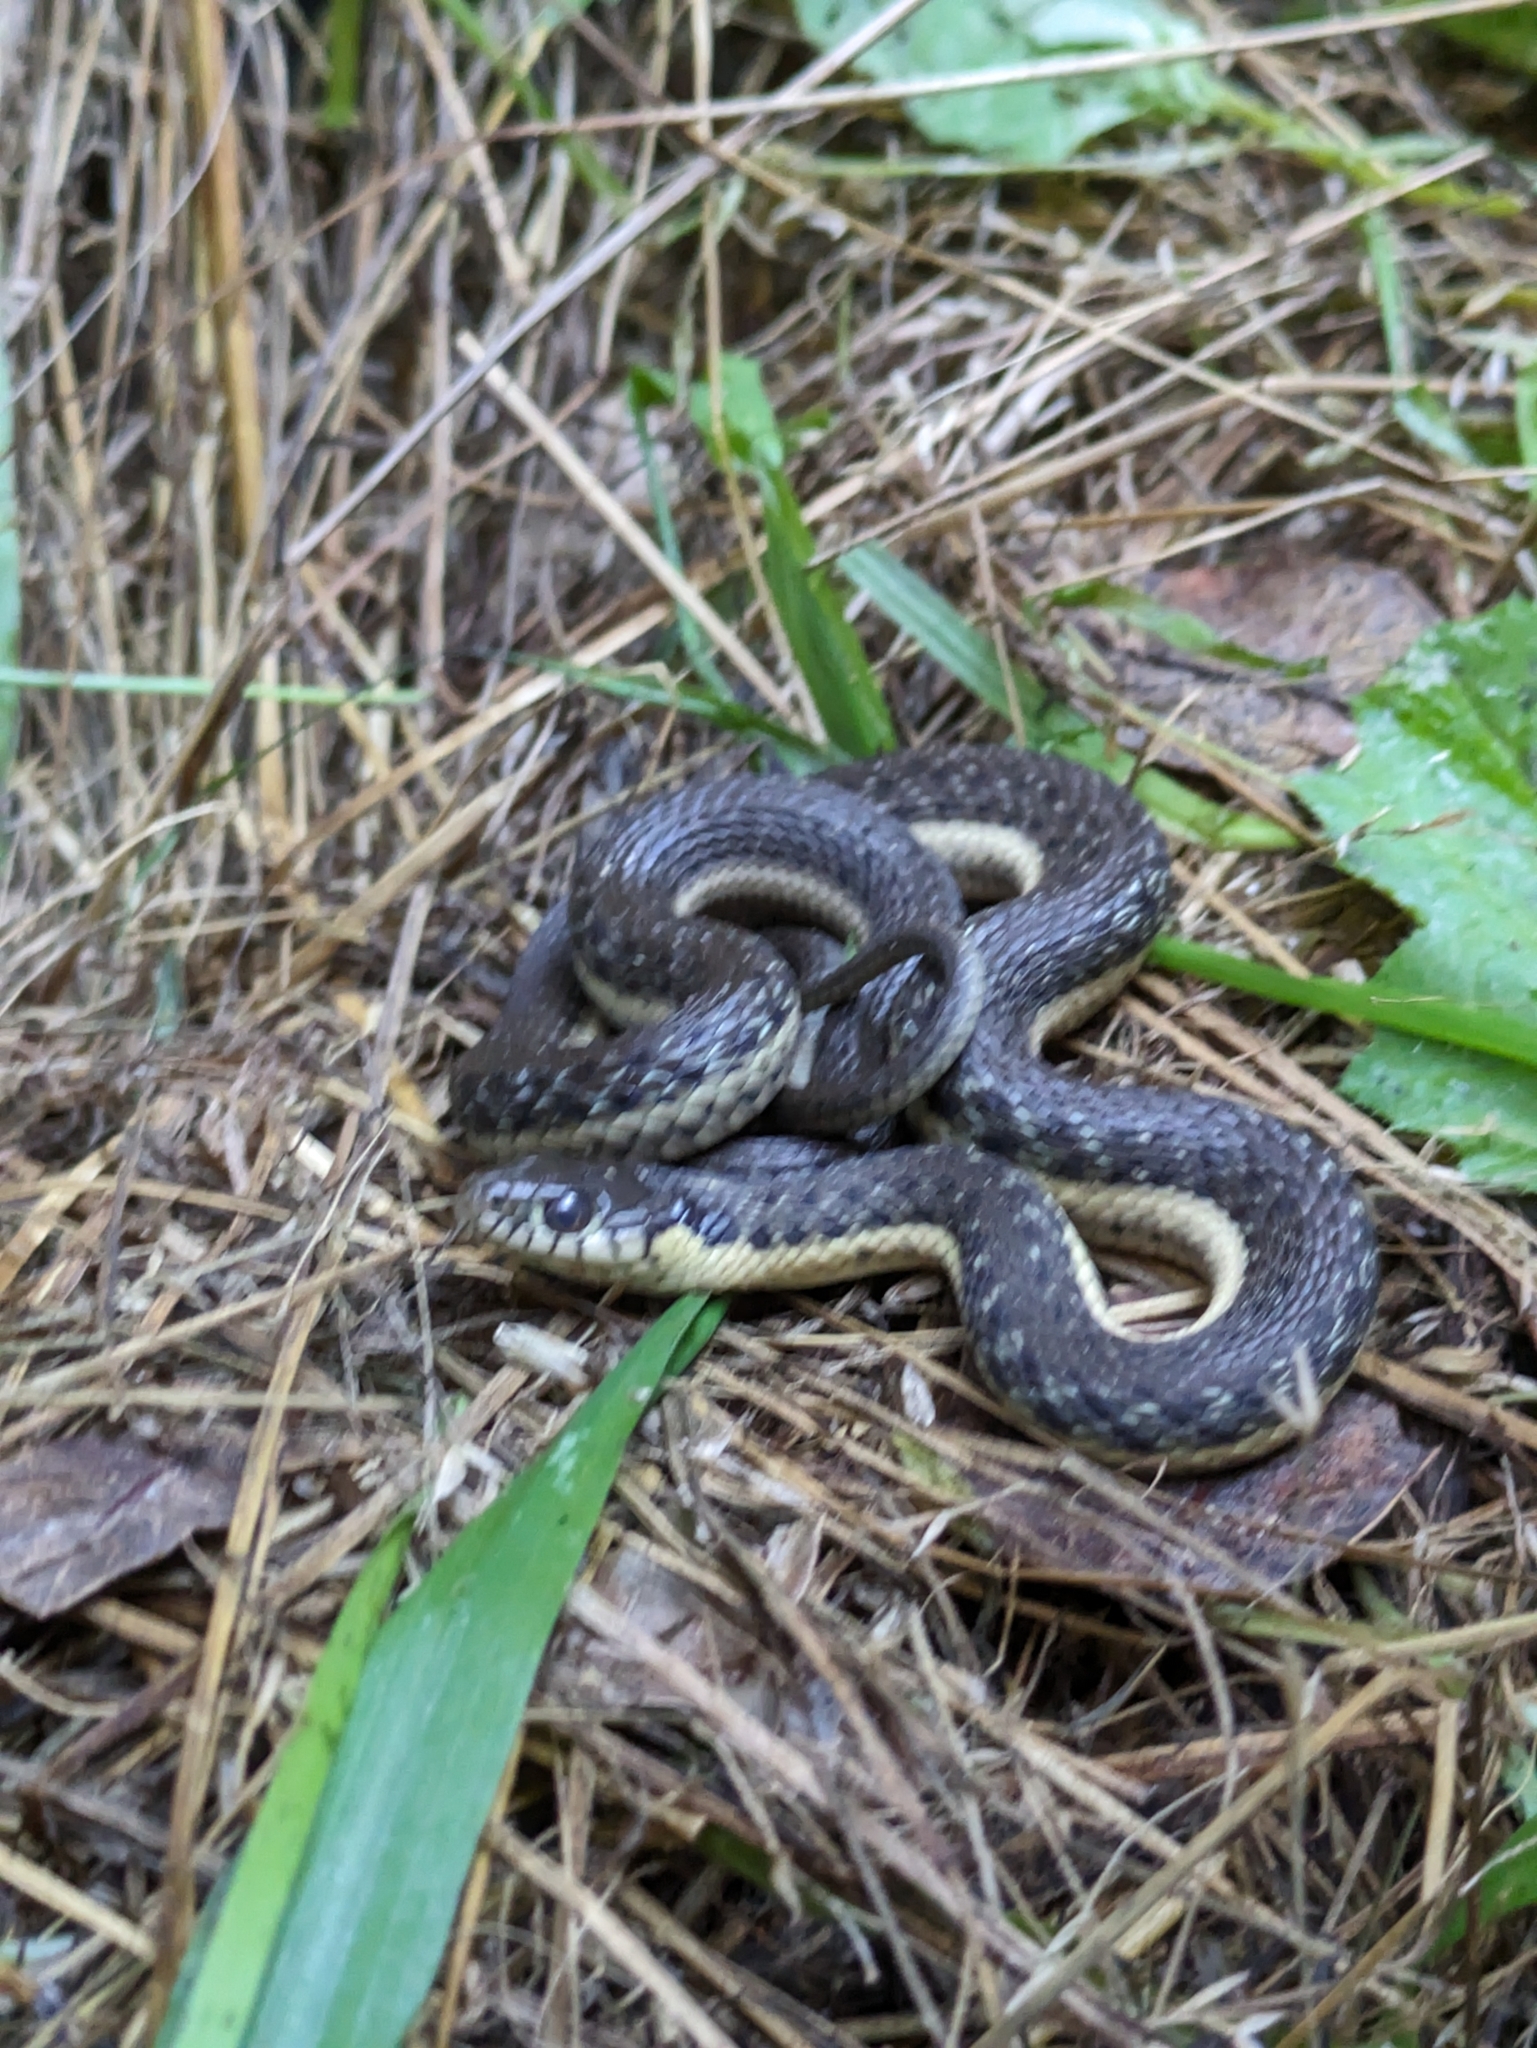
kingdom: Animalia
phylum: Chordata
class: Squamata
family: Colubridae
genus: Thamnophis
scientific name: Thamnophis hammondii
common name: Two-striped garter snake
